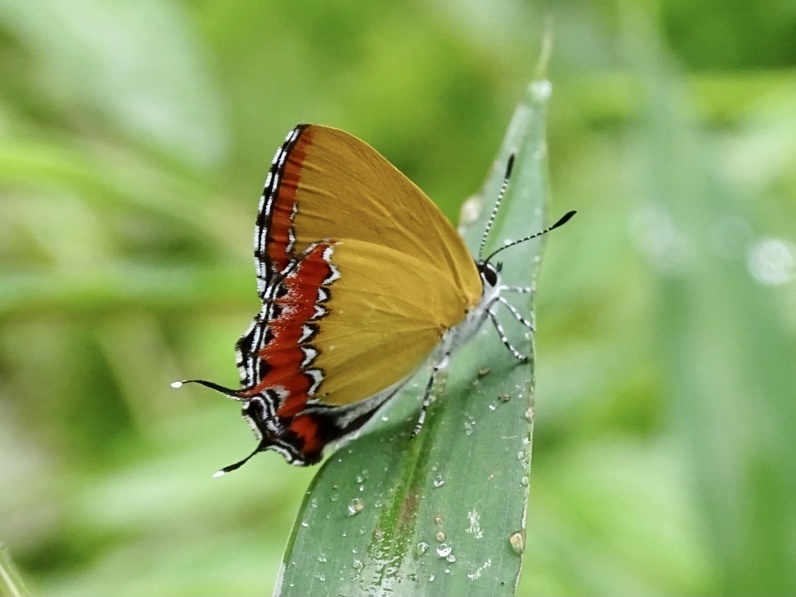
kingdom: Animalia
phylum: Arthropoda
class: Insecta
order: Lepidoptera
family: Lycaenidae
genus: Heliophorus
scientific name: Heliophorus epicles
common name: Purple sapphire
